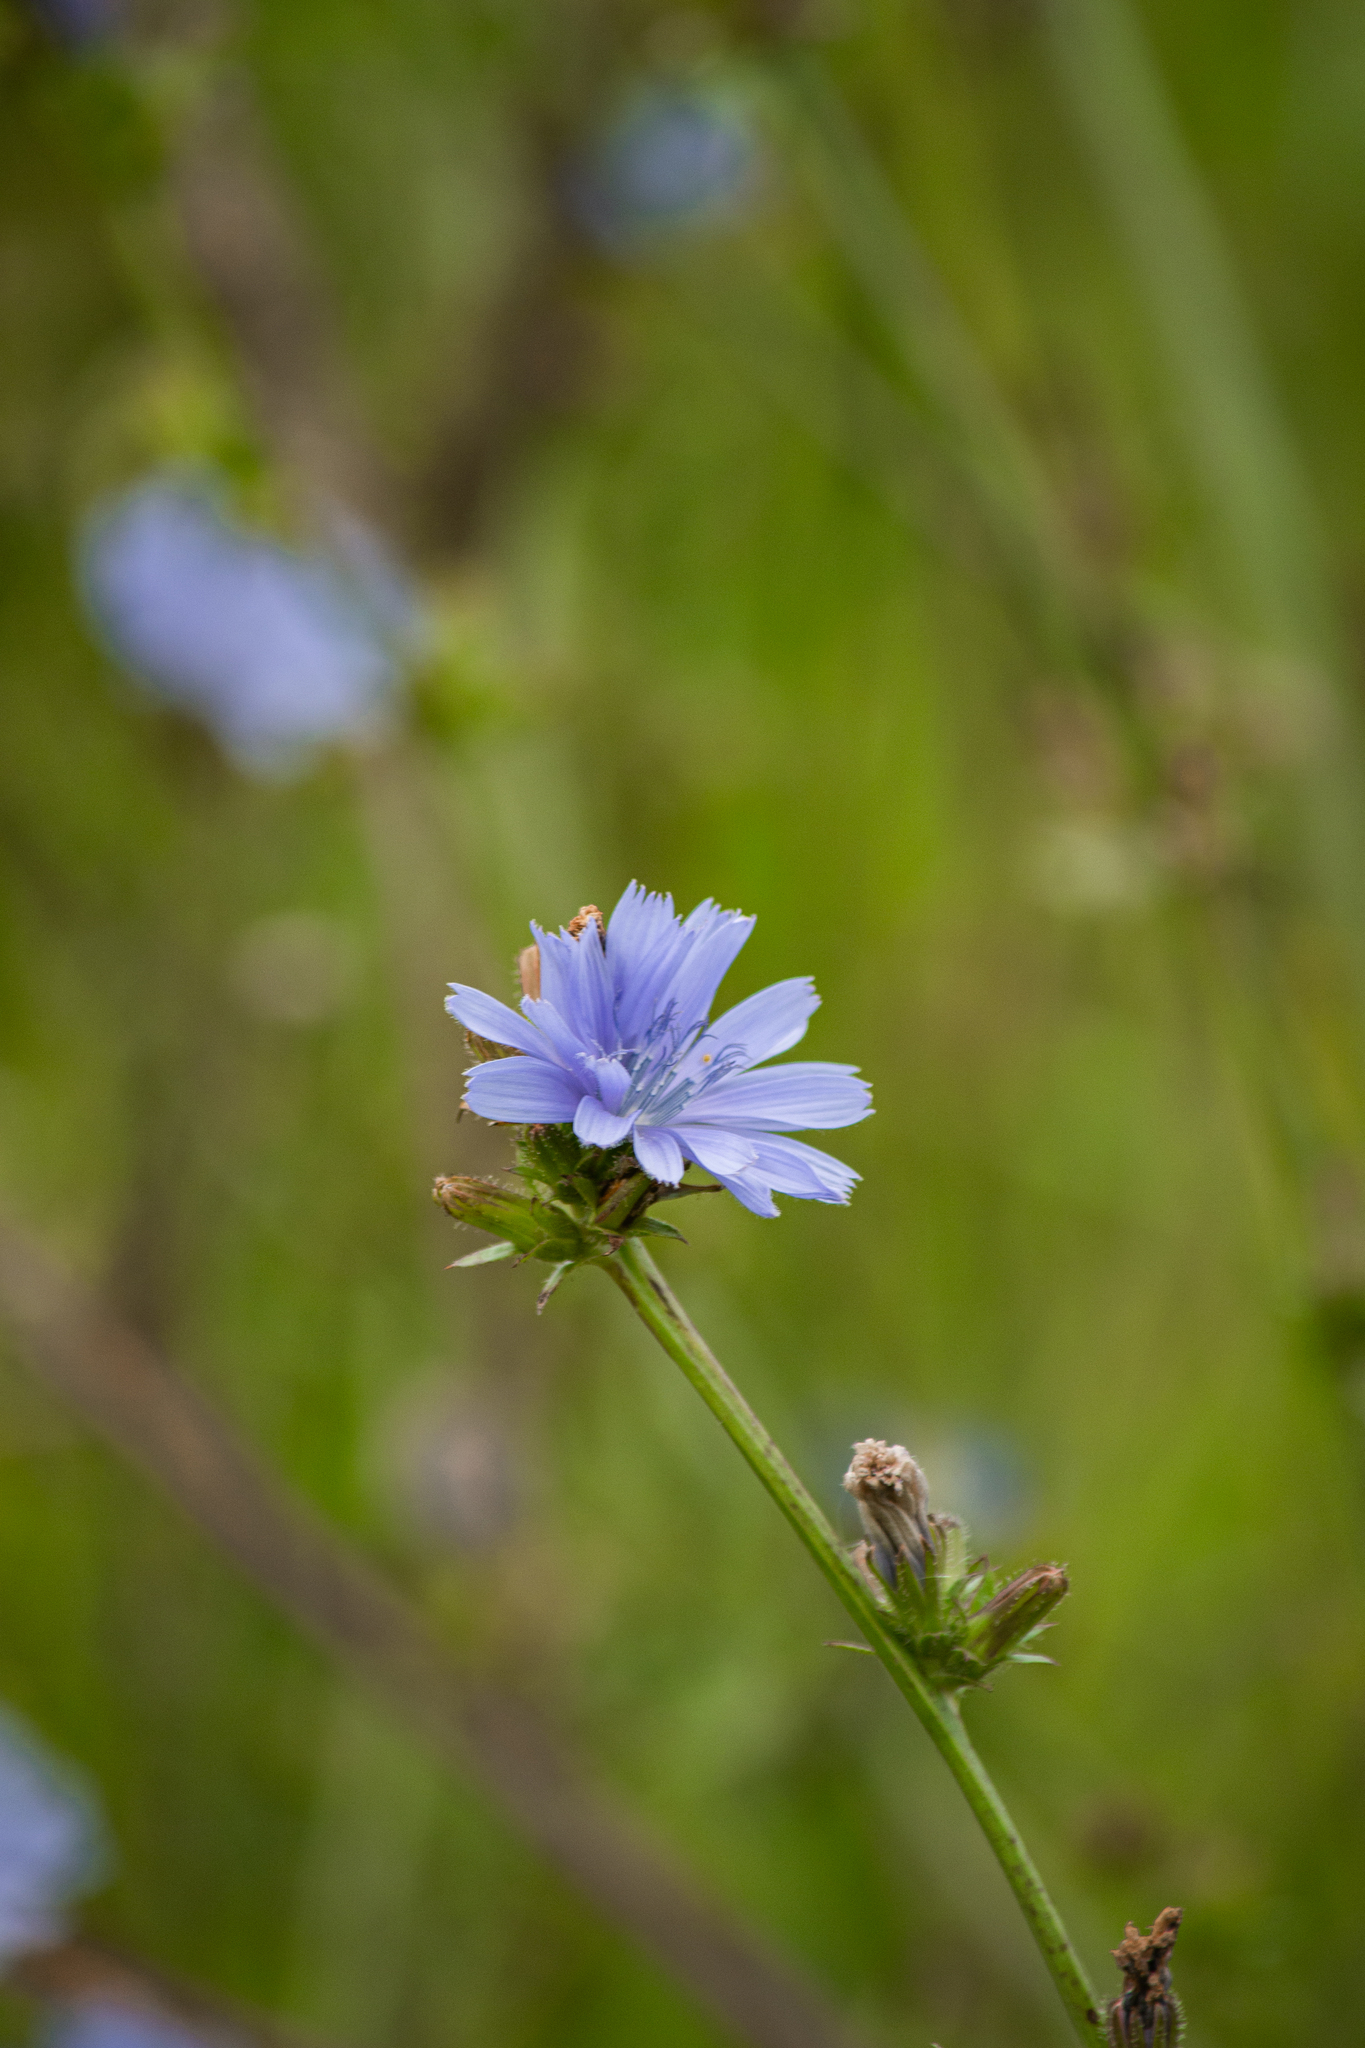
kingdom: Plantae
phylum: Tracheophyta
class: Magnoliopsida
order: Asterales
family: Asteraceae
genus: Cichorium
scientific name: Cichorium intybus
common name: Chicory
